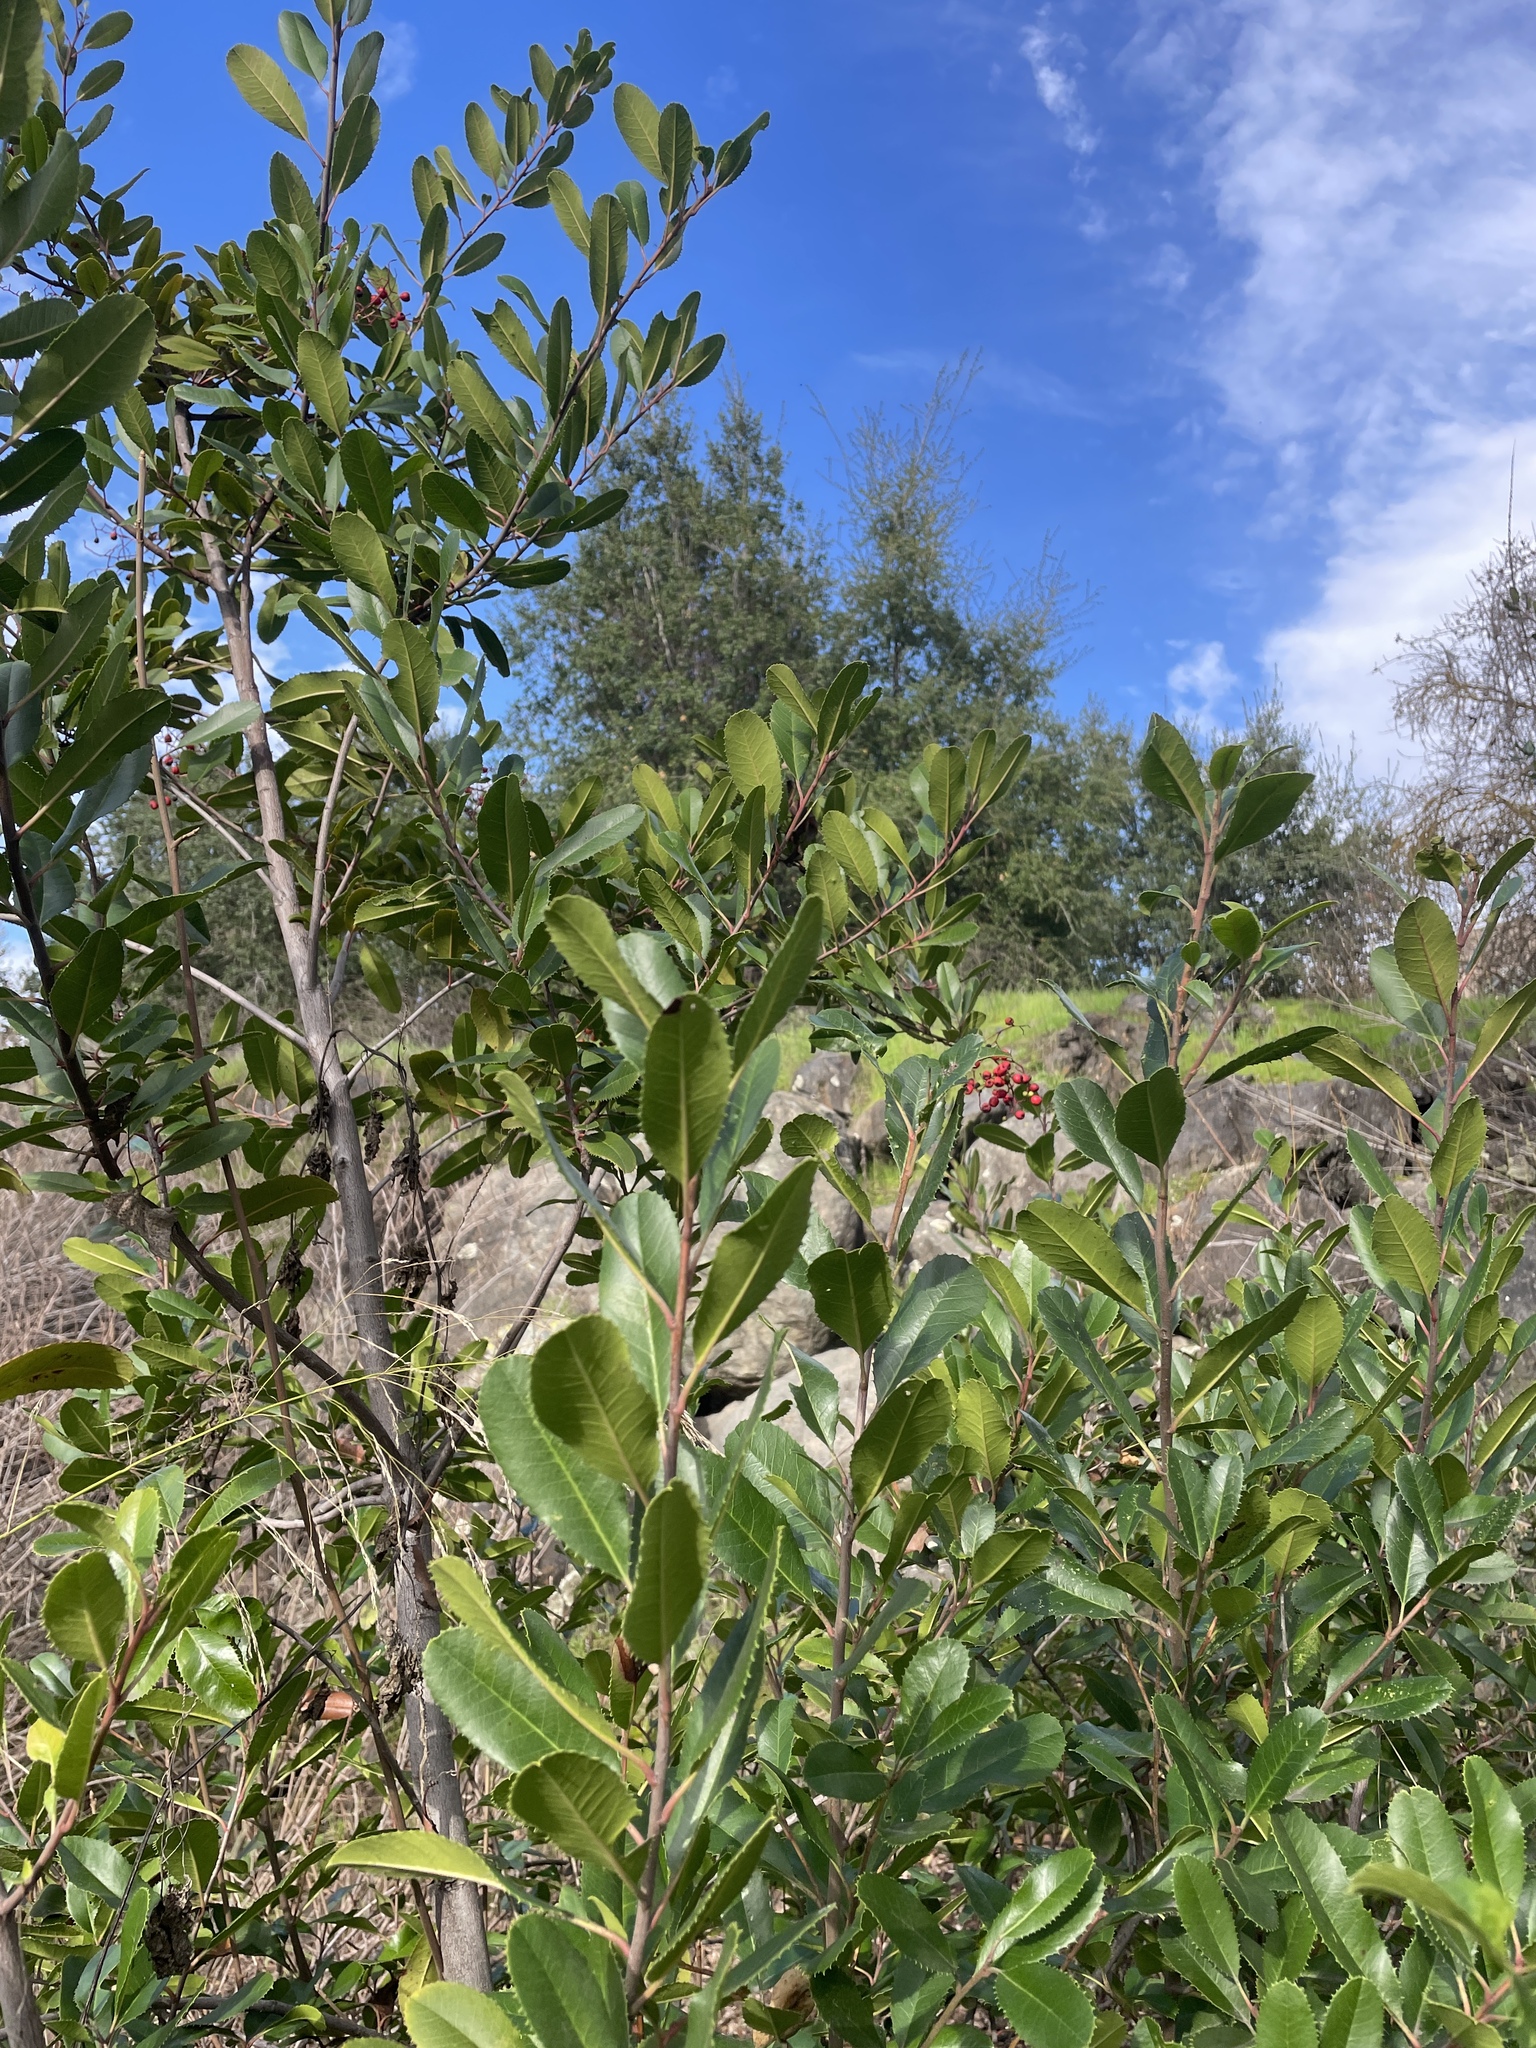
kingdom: Plantae
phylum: Tracheophyta
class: Magnoliopsida
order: Rosales
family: Rosaceae
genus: Heteromeles
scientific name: Heteromeles arbutifolia
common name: California-holly
